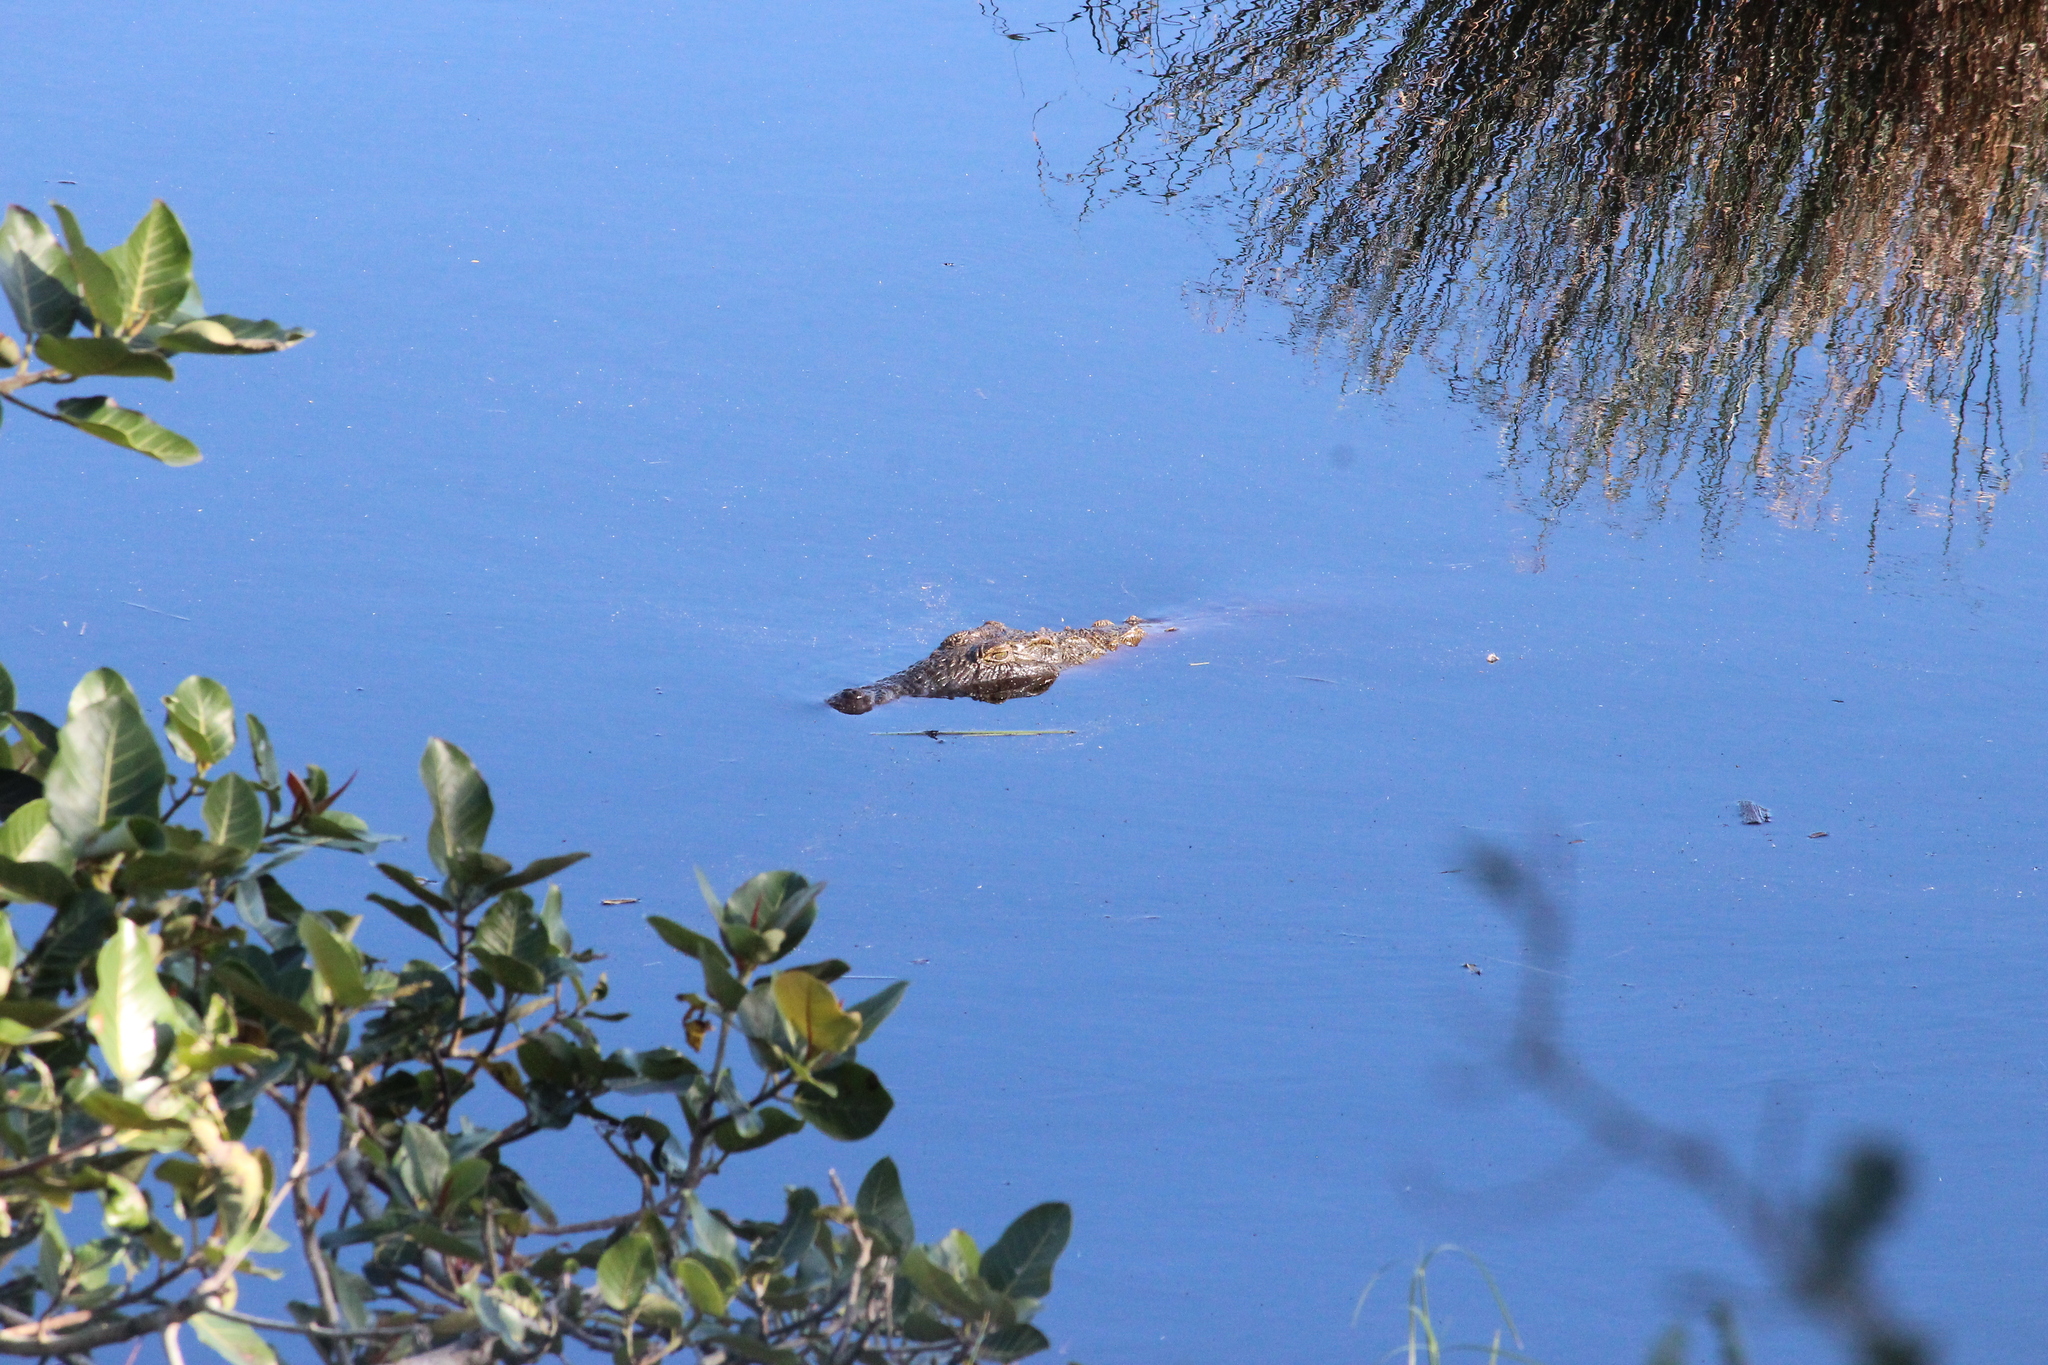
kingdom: Animalia
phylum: Chordata
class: Crocodylia
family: Crocodylidae
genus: Crocodylus
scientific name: Crocodylus niloticus
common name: Nile crocodile
